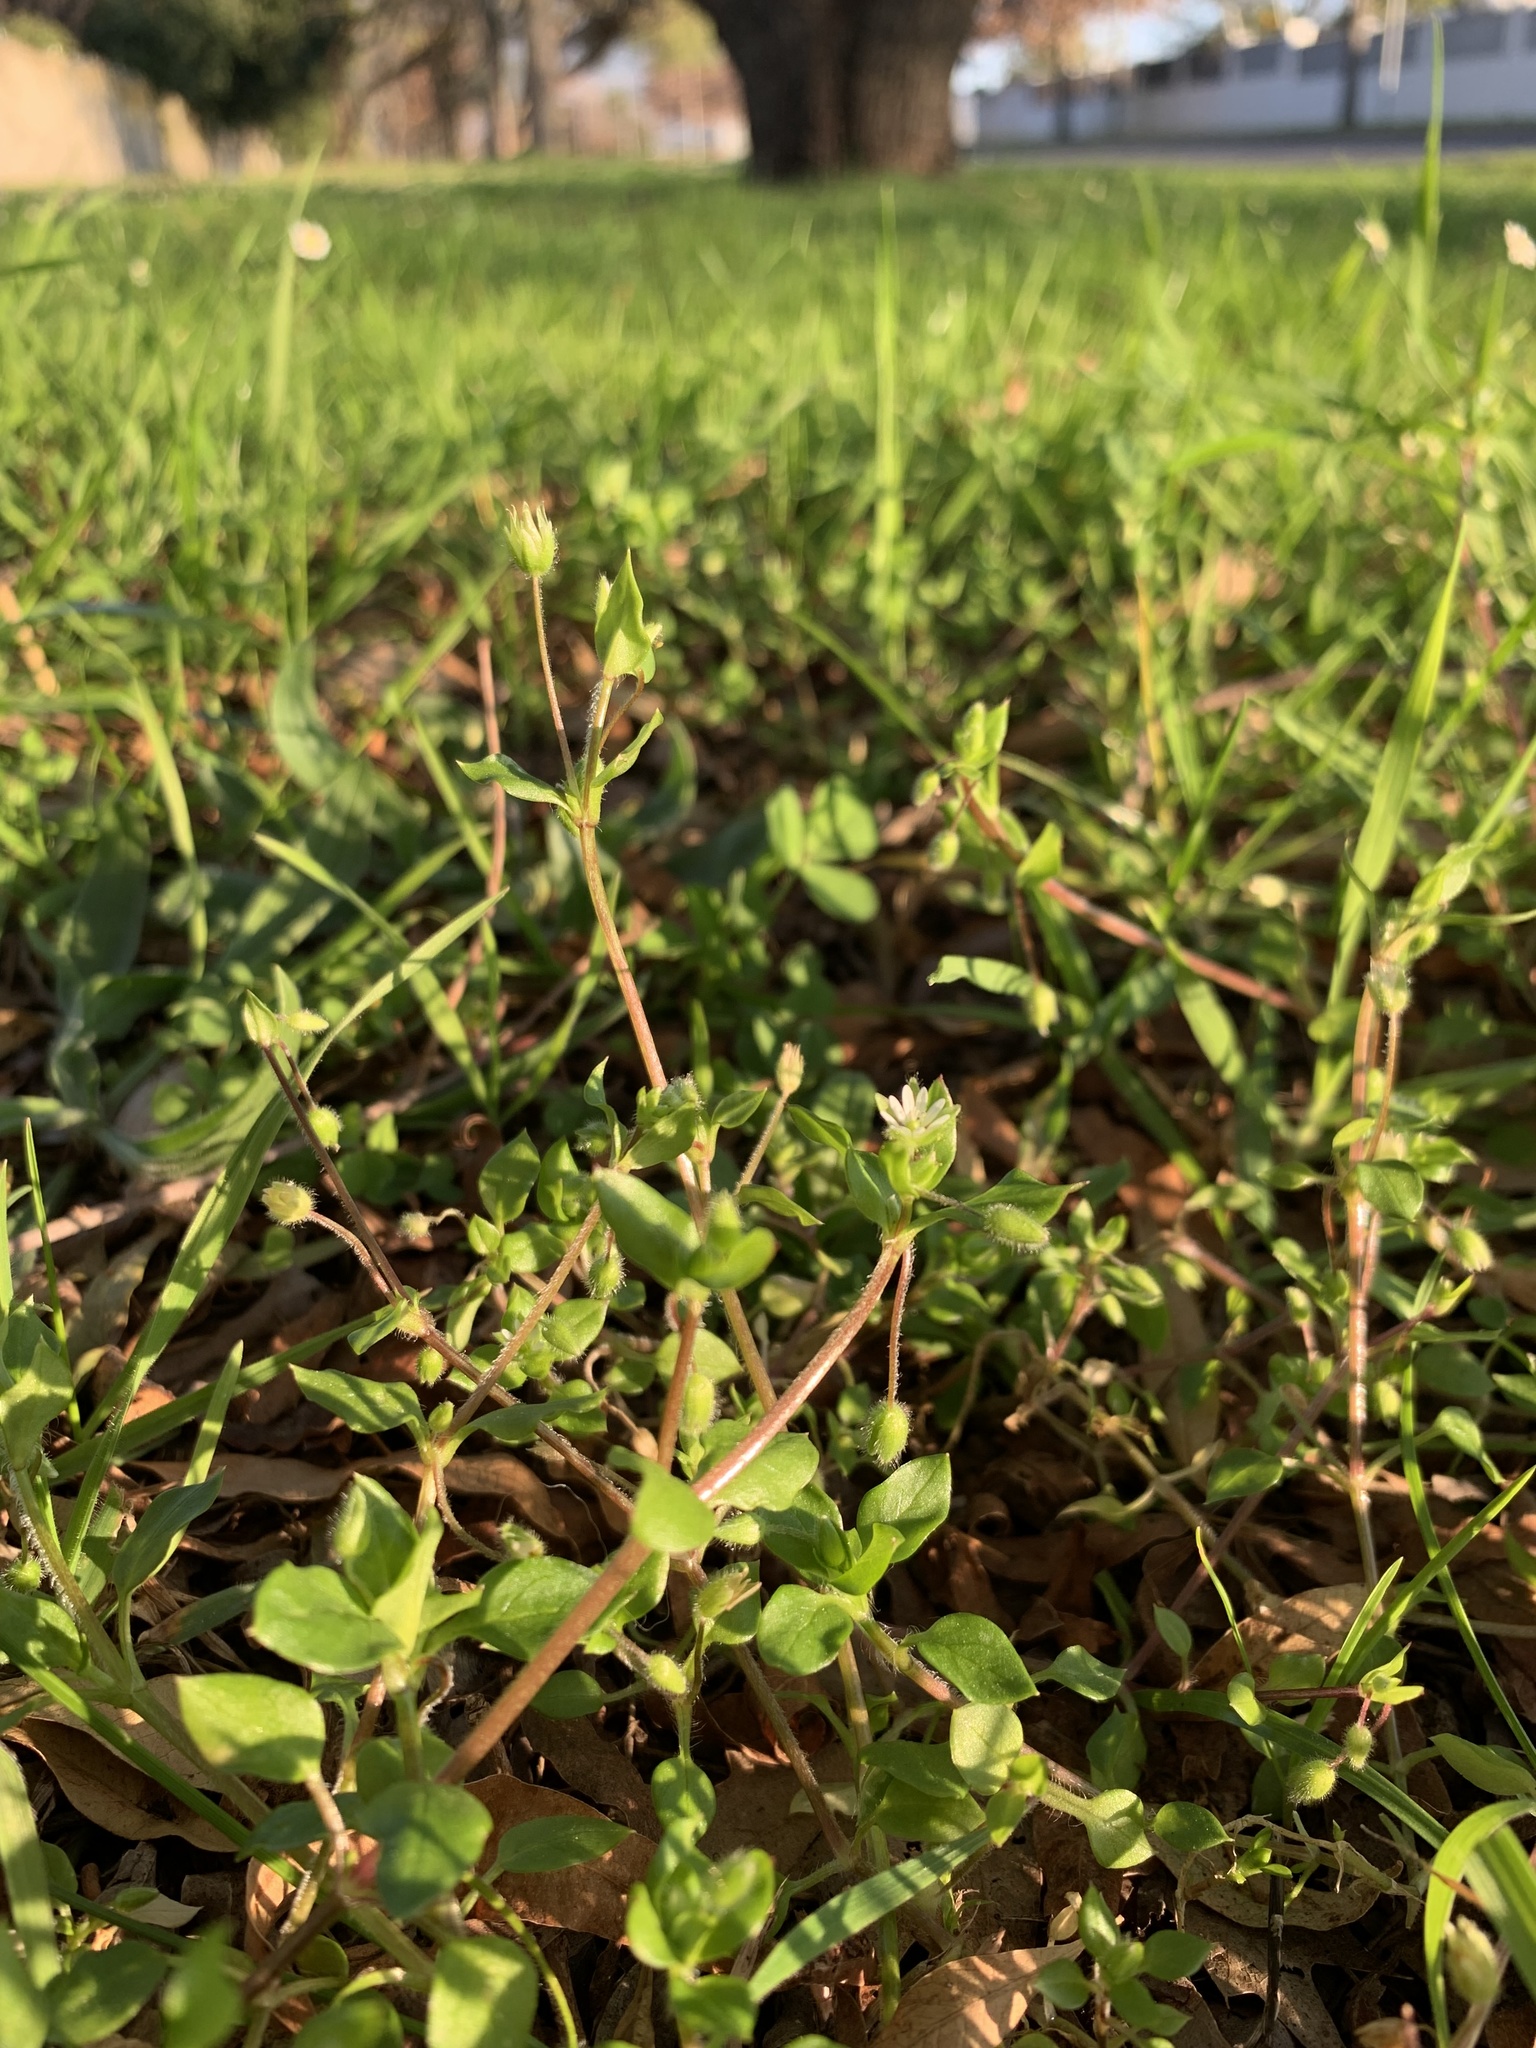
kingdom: Plantae
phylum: Tracheophyta
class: Magnoliopsida
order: Caryophyllales
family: Caryophyllaceae
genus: Stellaria
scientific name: Stellaria media
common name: Common chickweed
